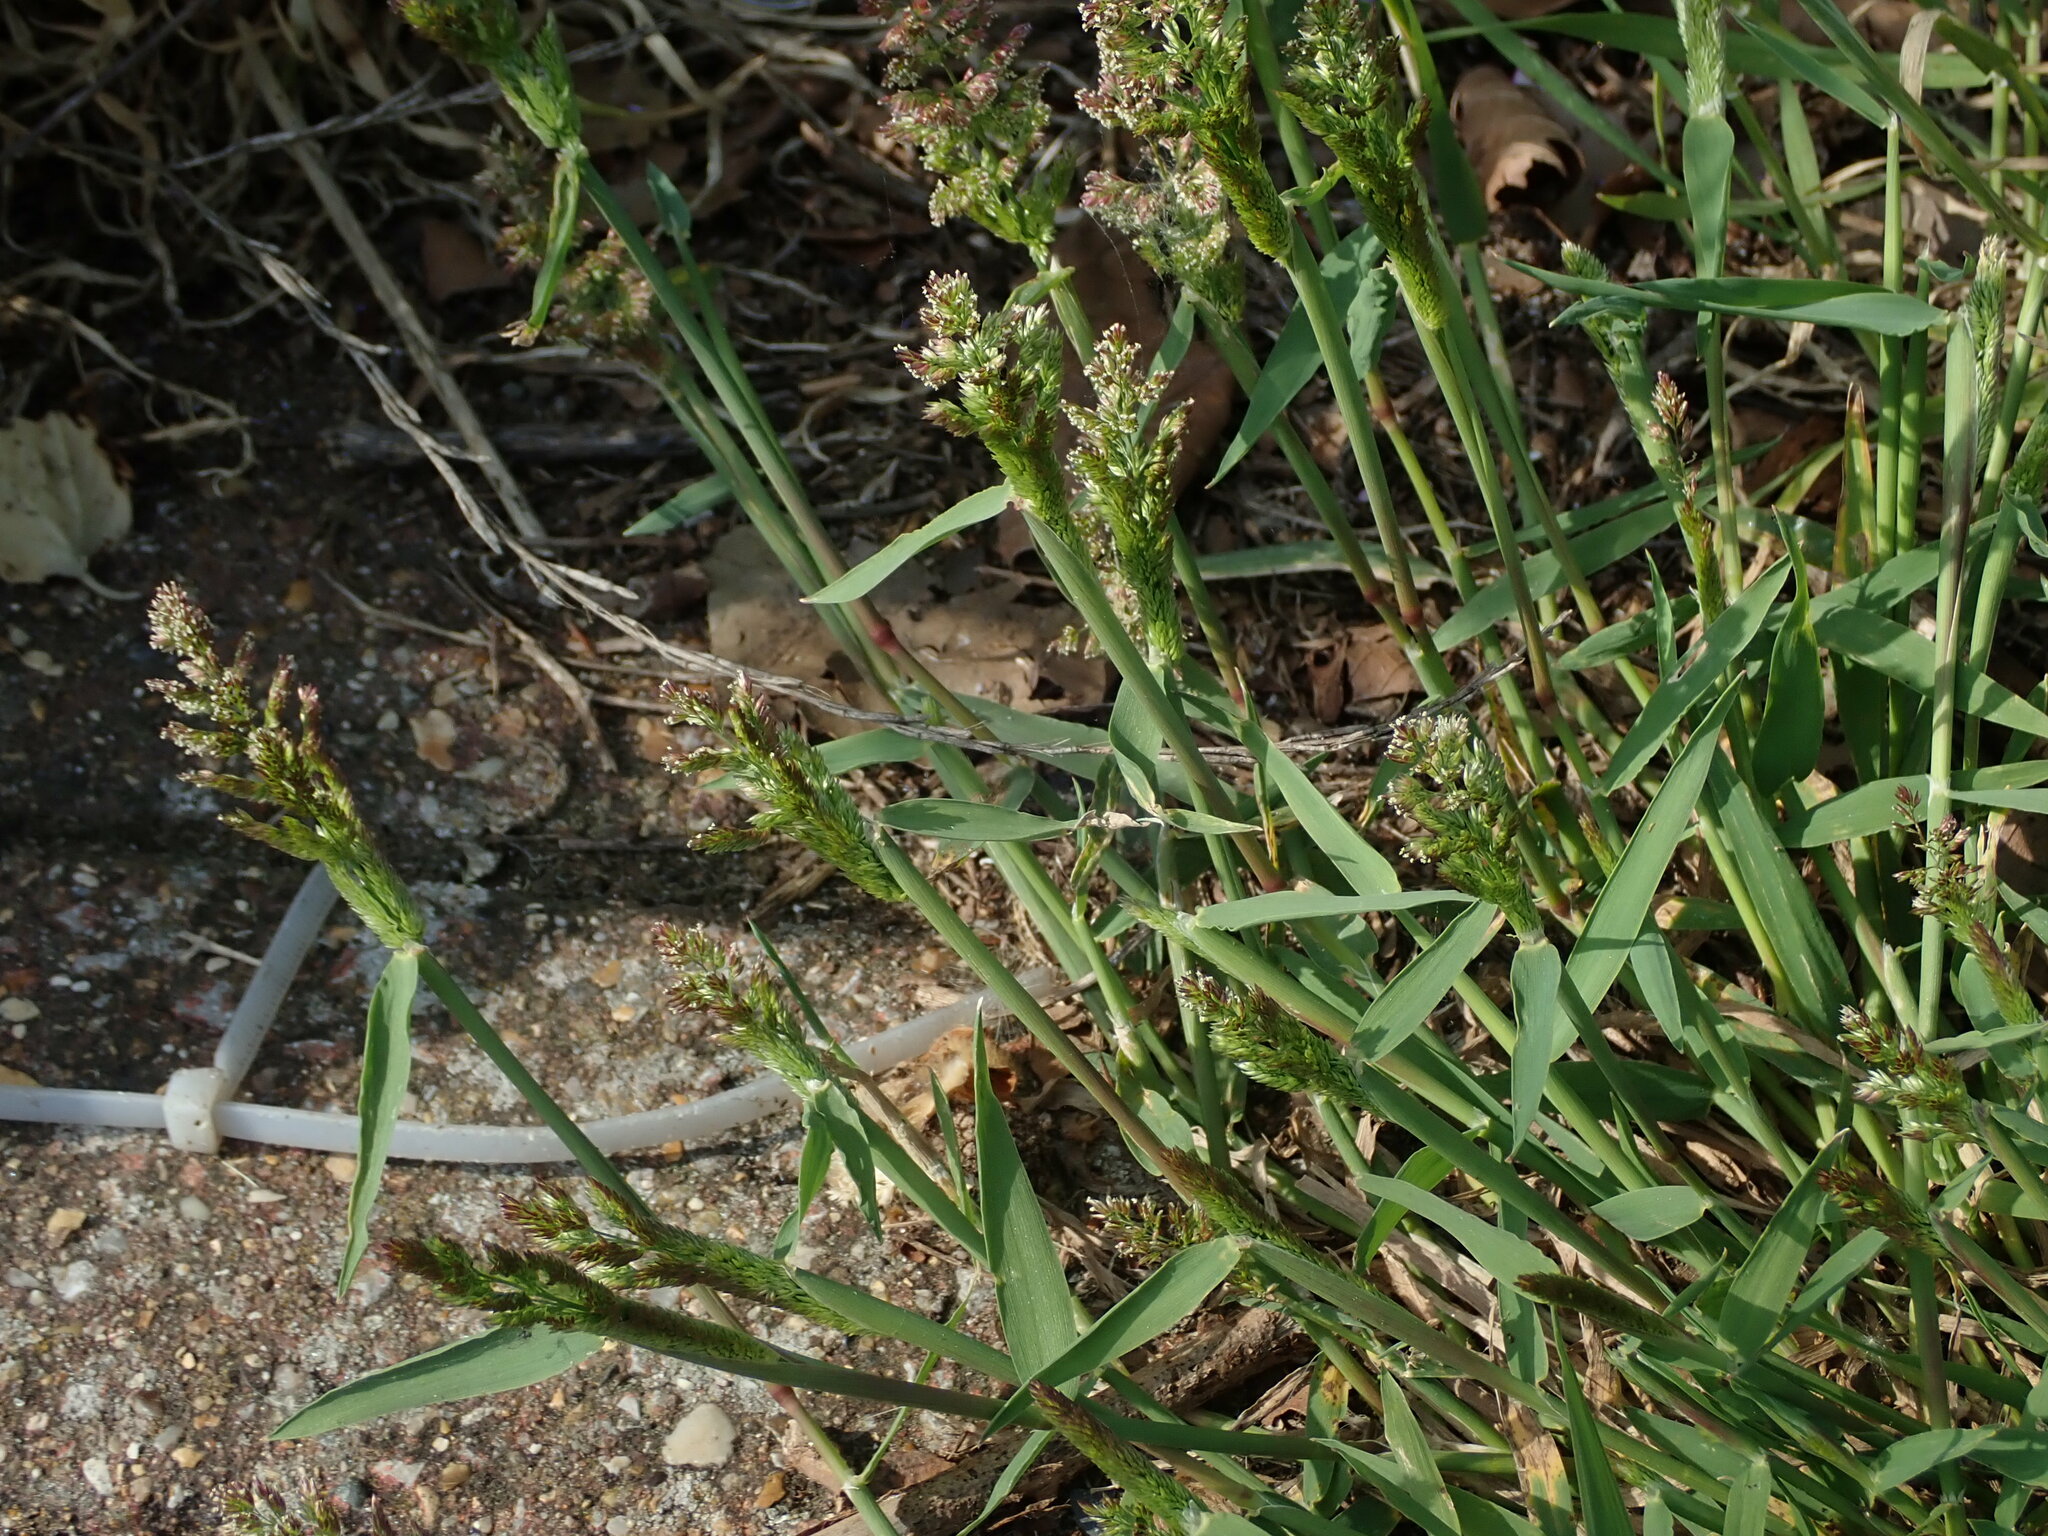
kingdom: Plantae
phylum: Tracheophyta
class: Liliopsida
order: Poales
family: Poaceae
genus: Polypogon
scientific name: Polypogon viridis
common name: Water bent
